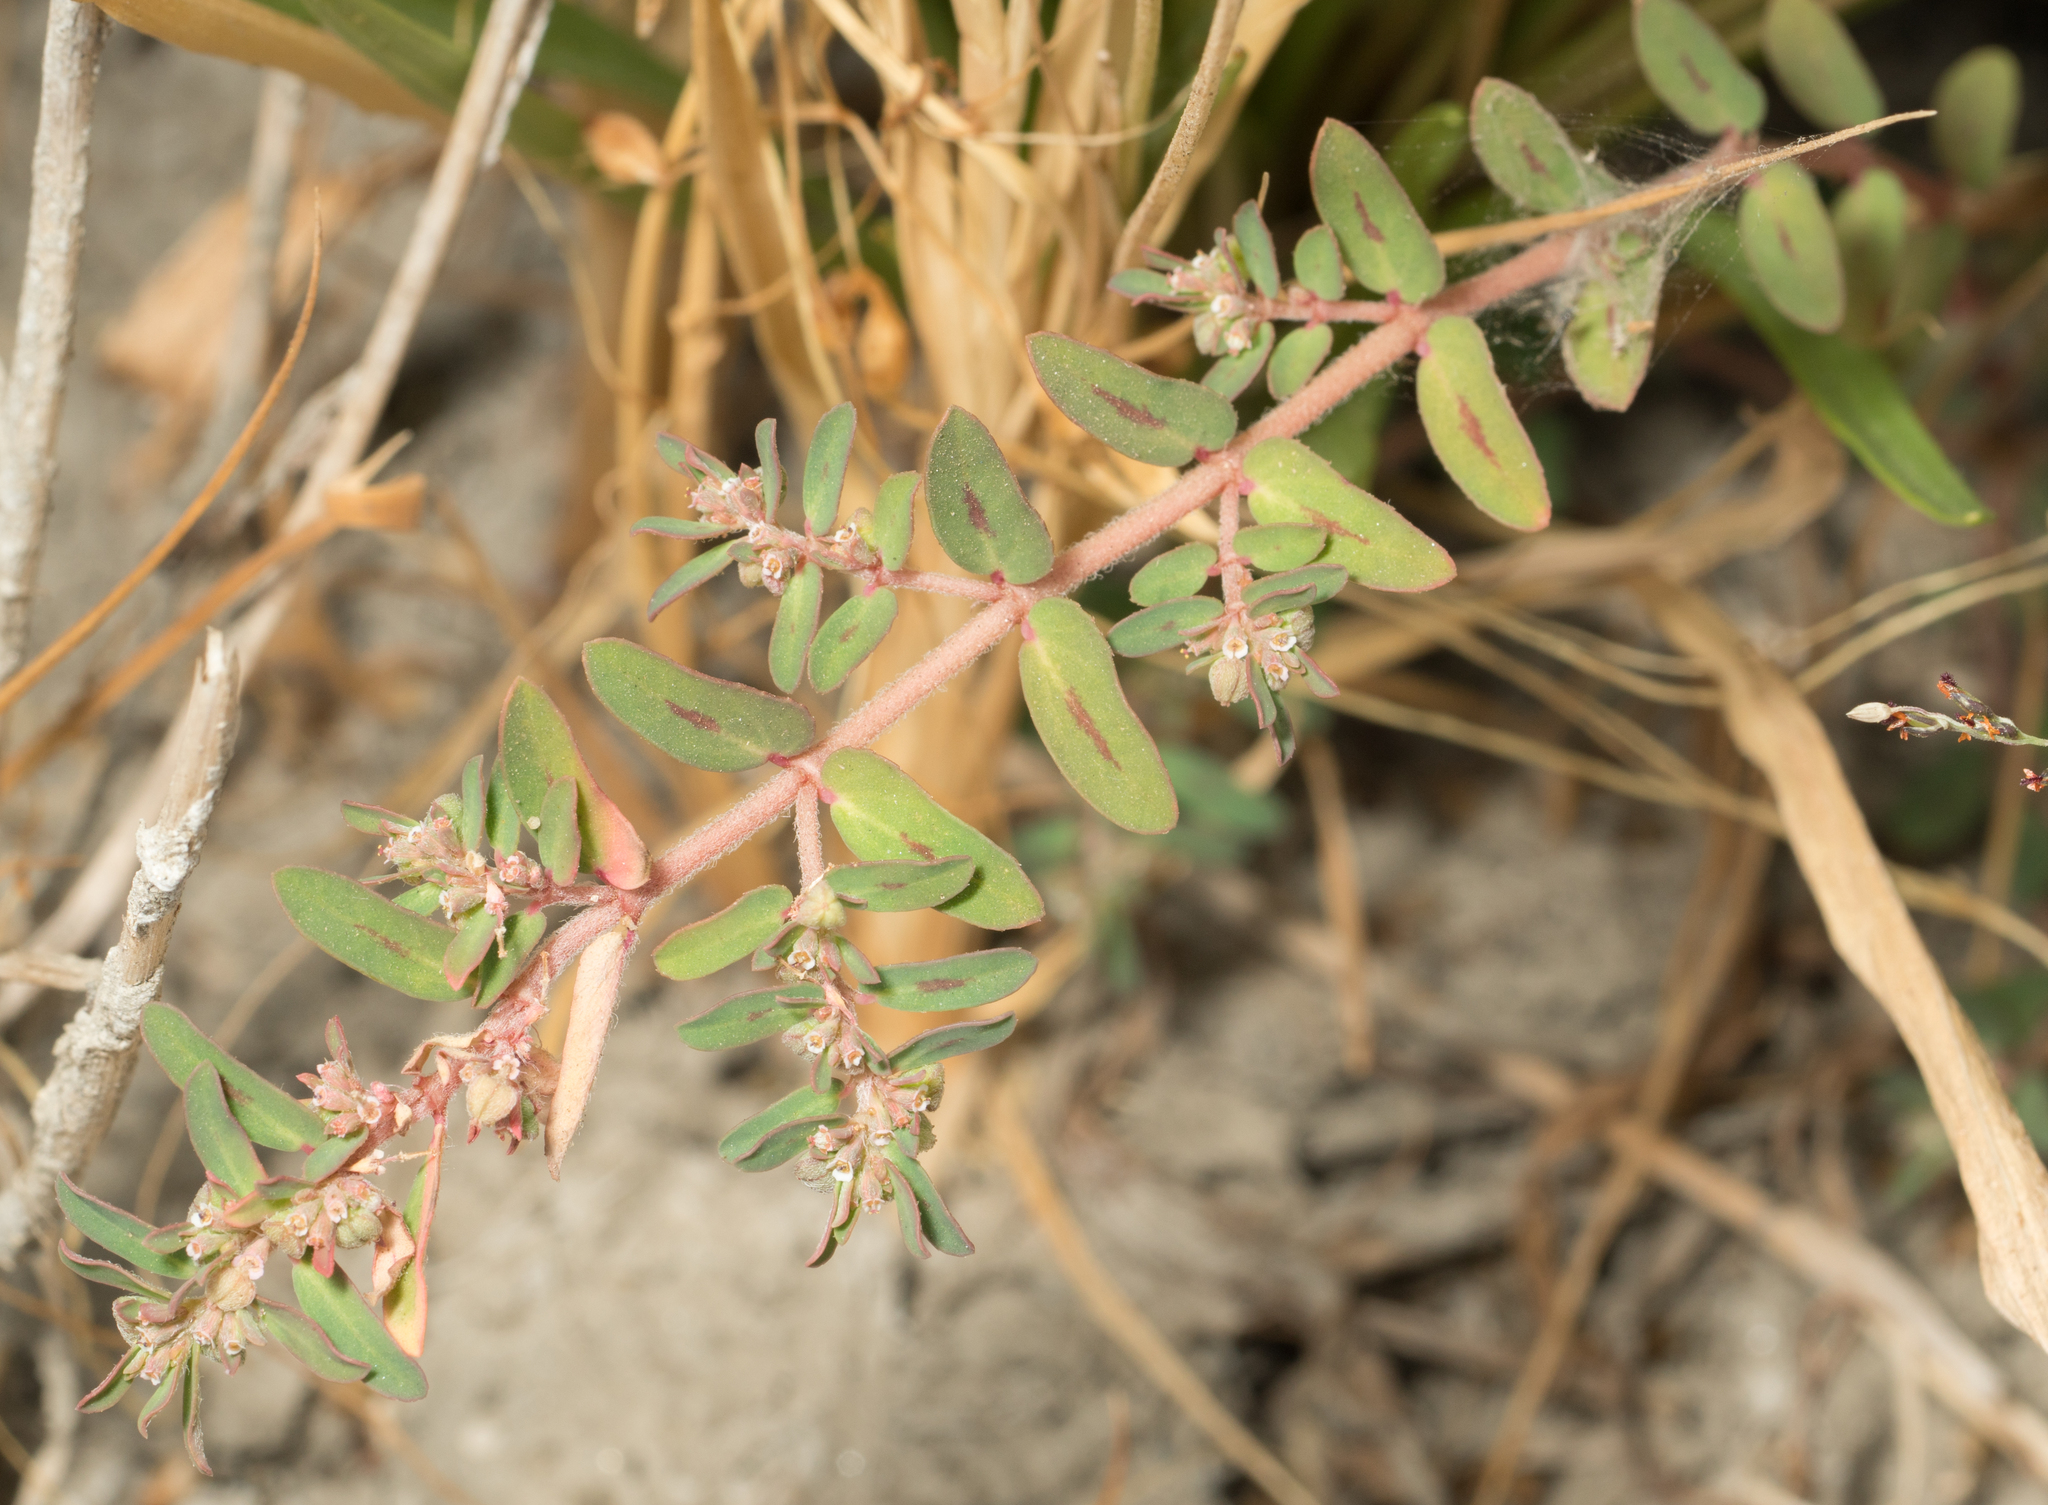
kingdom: Plantae
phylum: Tracheophyta
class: Magnoliopsida
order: Malpighiales
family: Euphorbiaceae
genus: Euphorbia
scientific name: Euphorbia maculata
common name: Spotted spurge
